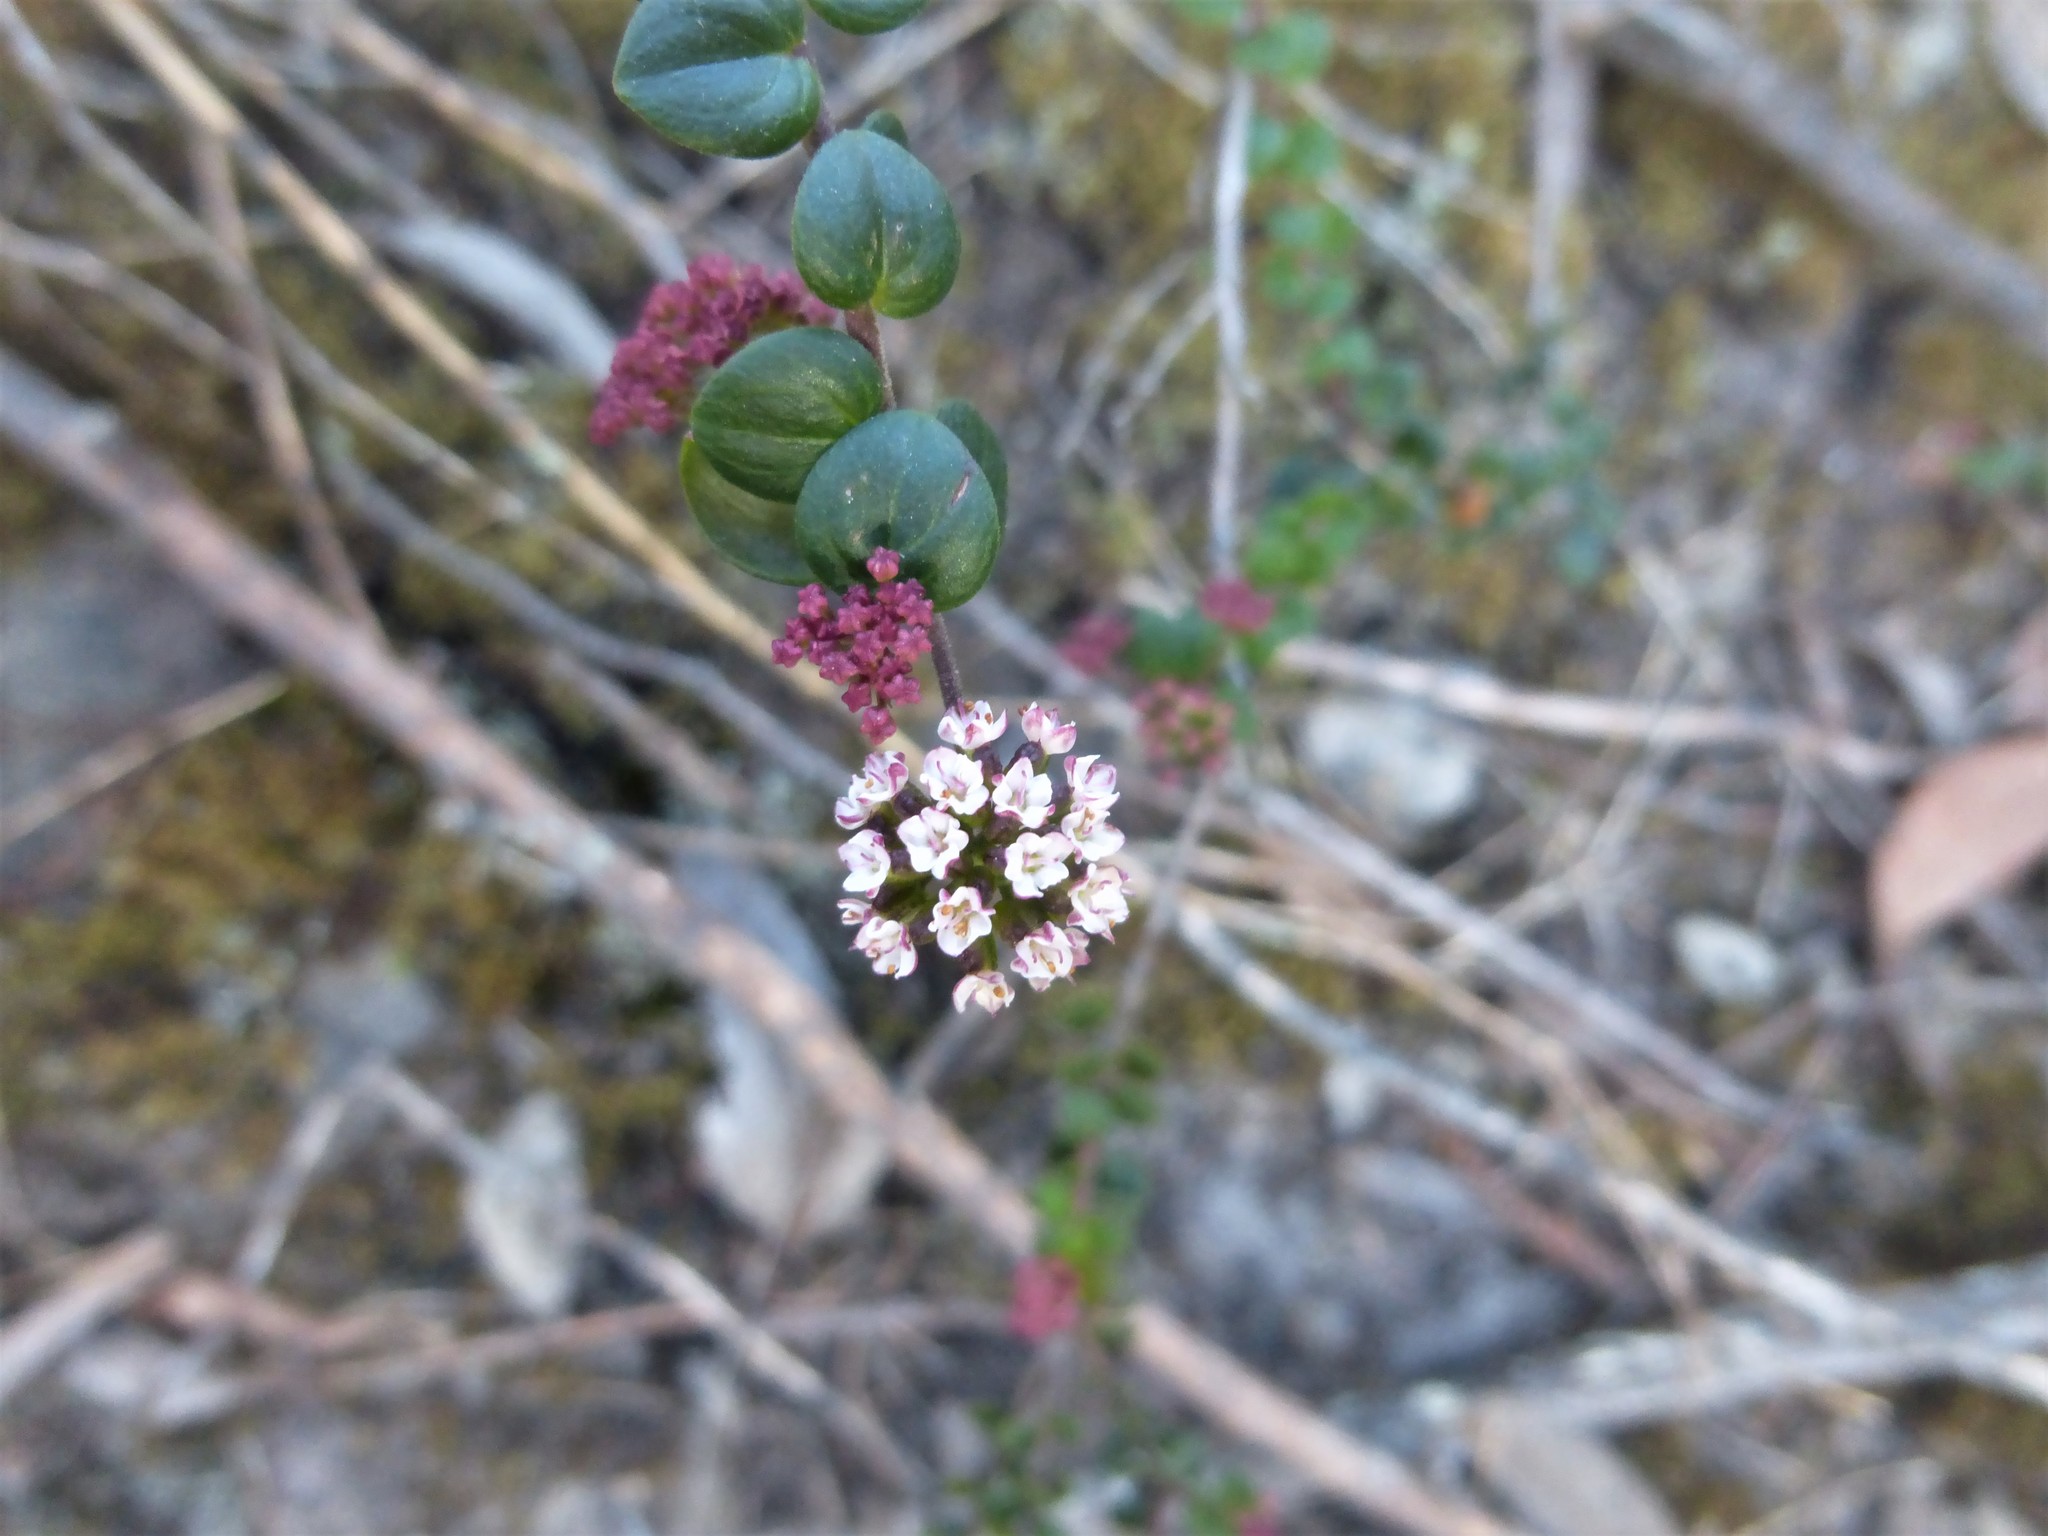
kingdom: Plantae
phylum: Tracheophyta
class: Magnoliopsida
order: Apiales
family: Apiaceae
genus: Platysace
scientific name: Platysace lanceolata
